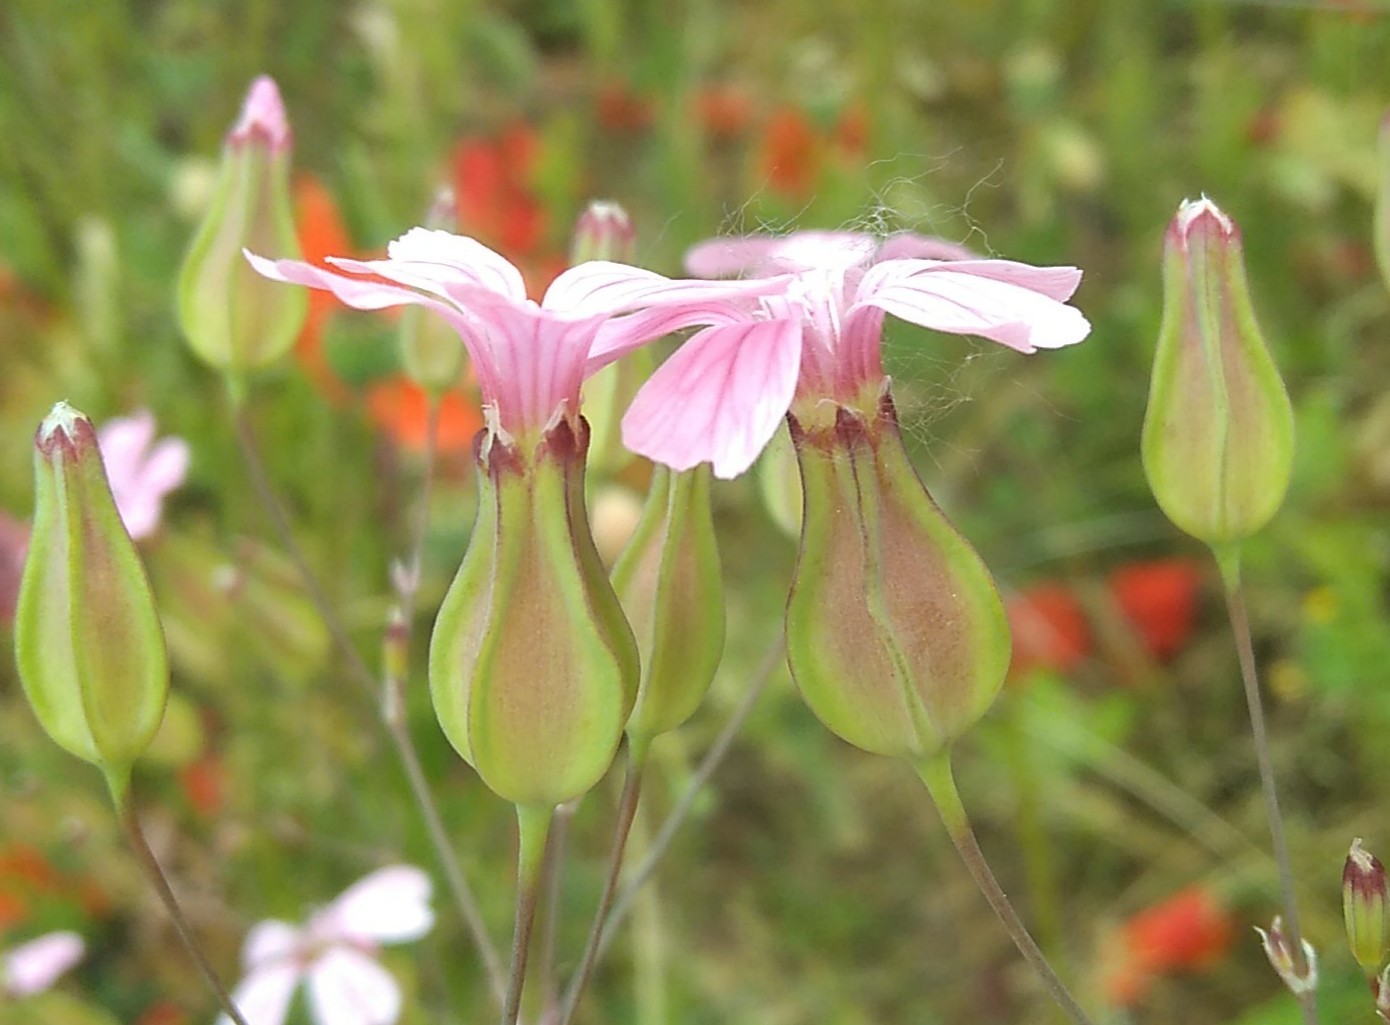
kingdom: Plantae
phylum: Tracheophyta
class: Magnoliopsida
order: Caryophyllales
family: Caryophyllaceae
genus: Gypsophila
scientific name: Gypsophila vaccaria
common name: Cow soapwort
